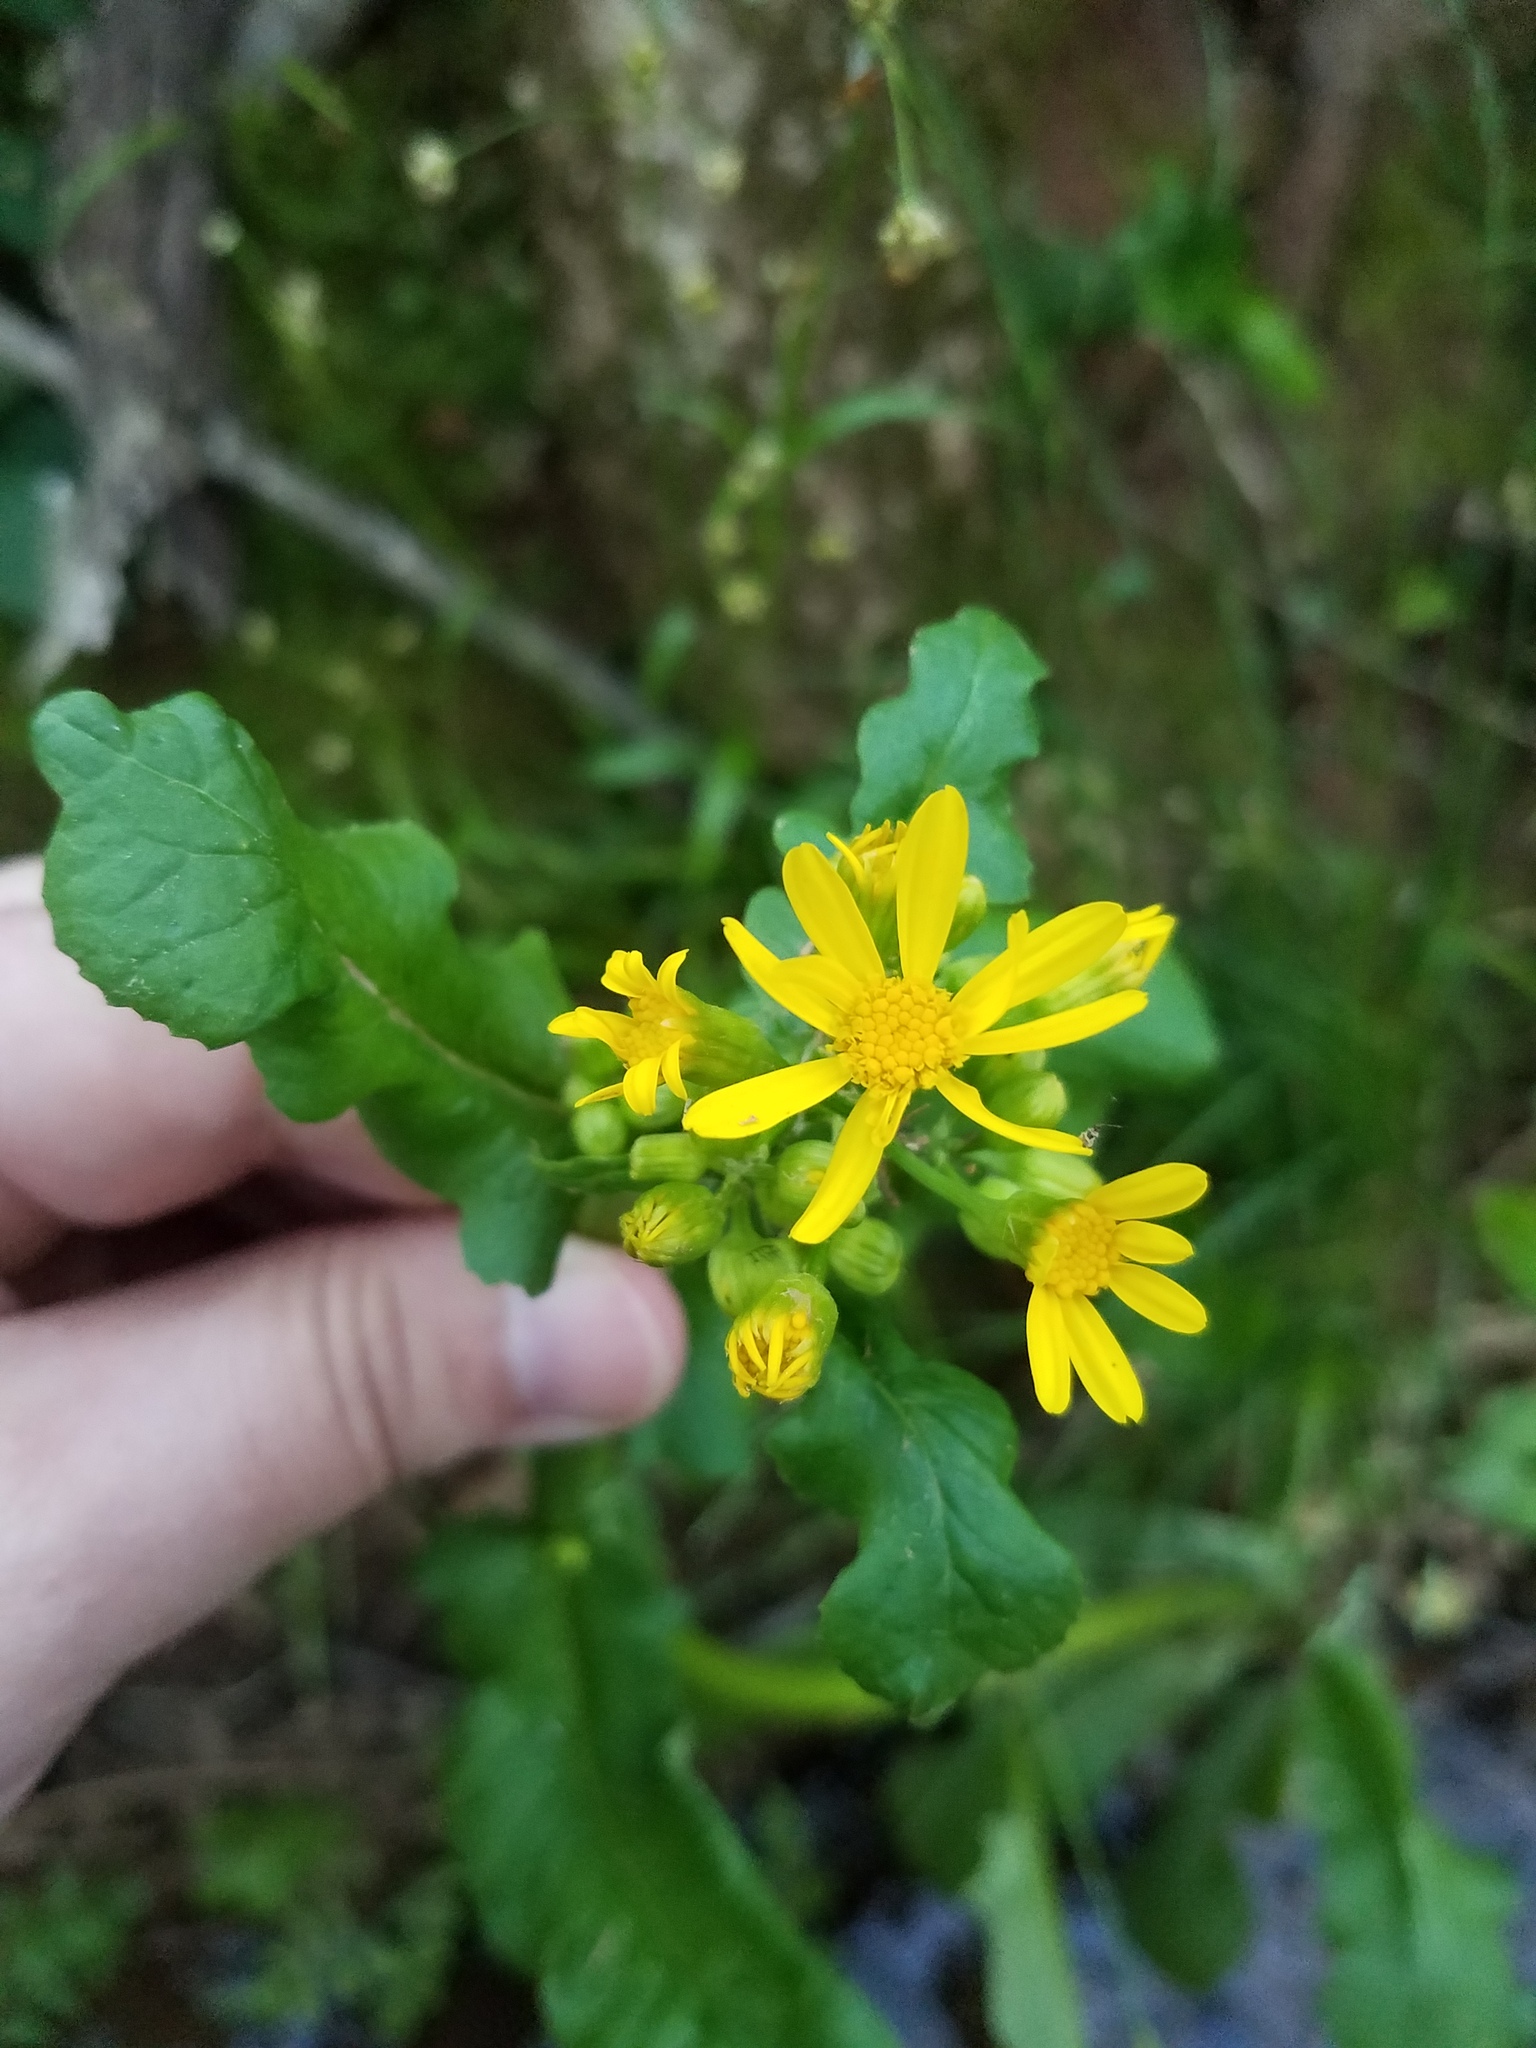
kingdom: Plantae
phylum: Tracheophyta
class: Magnoliopsida
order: Asterales
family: Asteraceae
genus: Packera
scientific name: Packera glabella
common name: Butterweed
